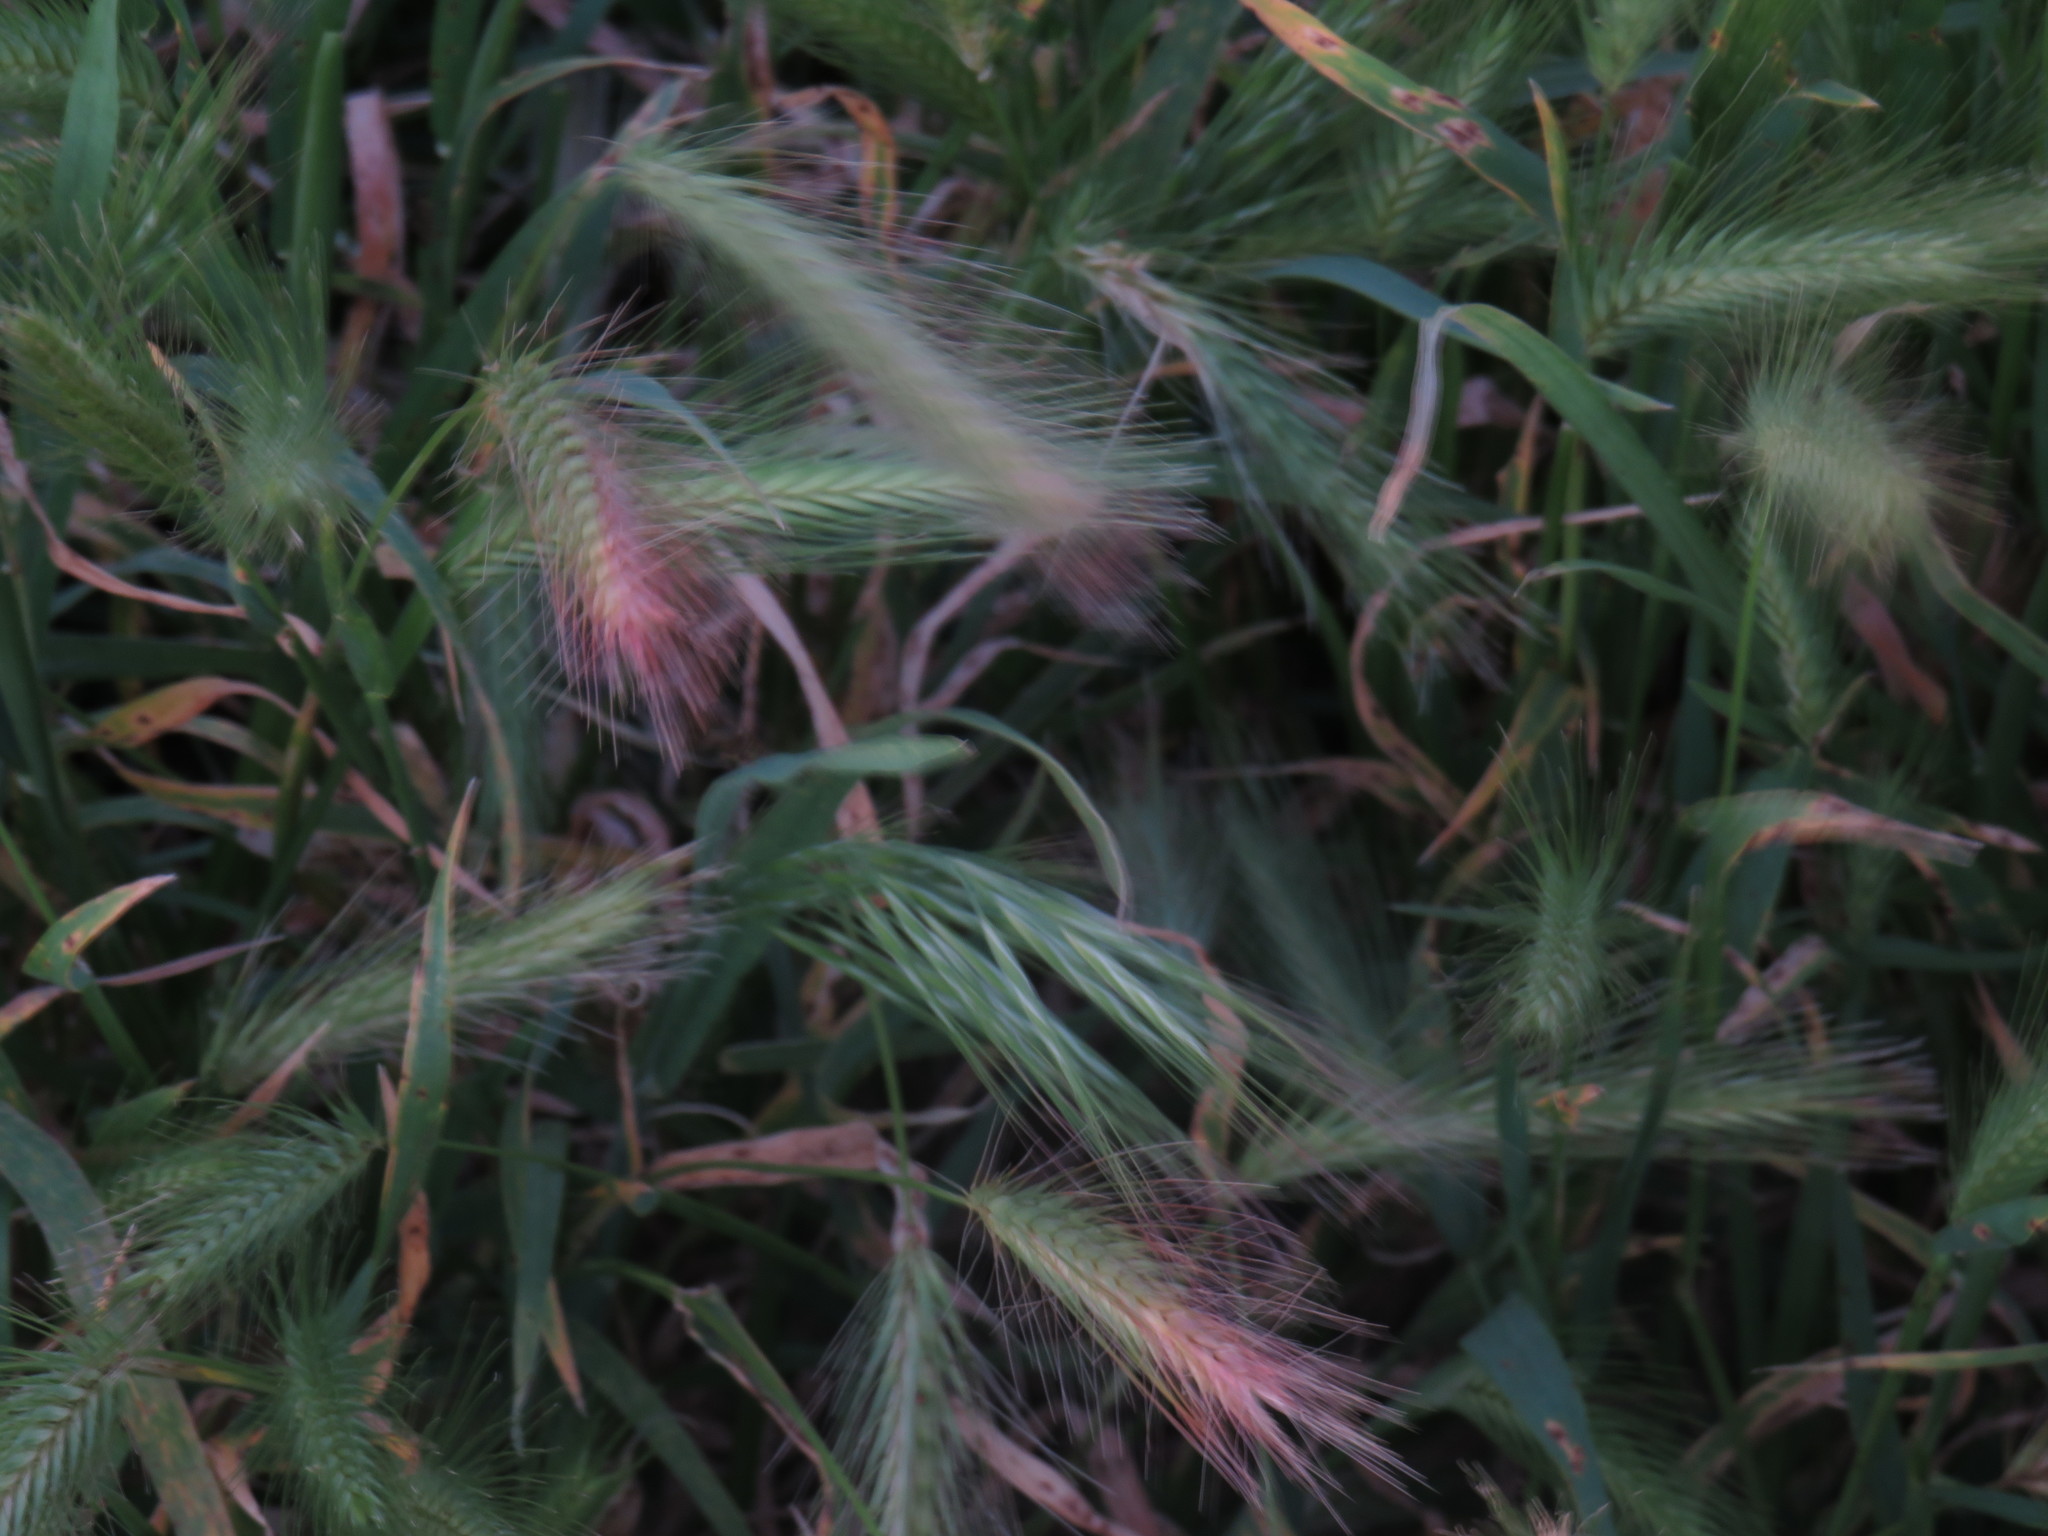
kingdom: Plantae
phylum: Tracheophyta
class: Liliopsida
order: Poales
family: Poaceae
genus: Hordeum
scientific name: Hordeum murinum
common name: Wall barley
